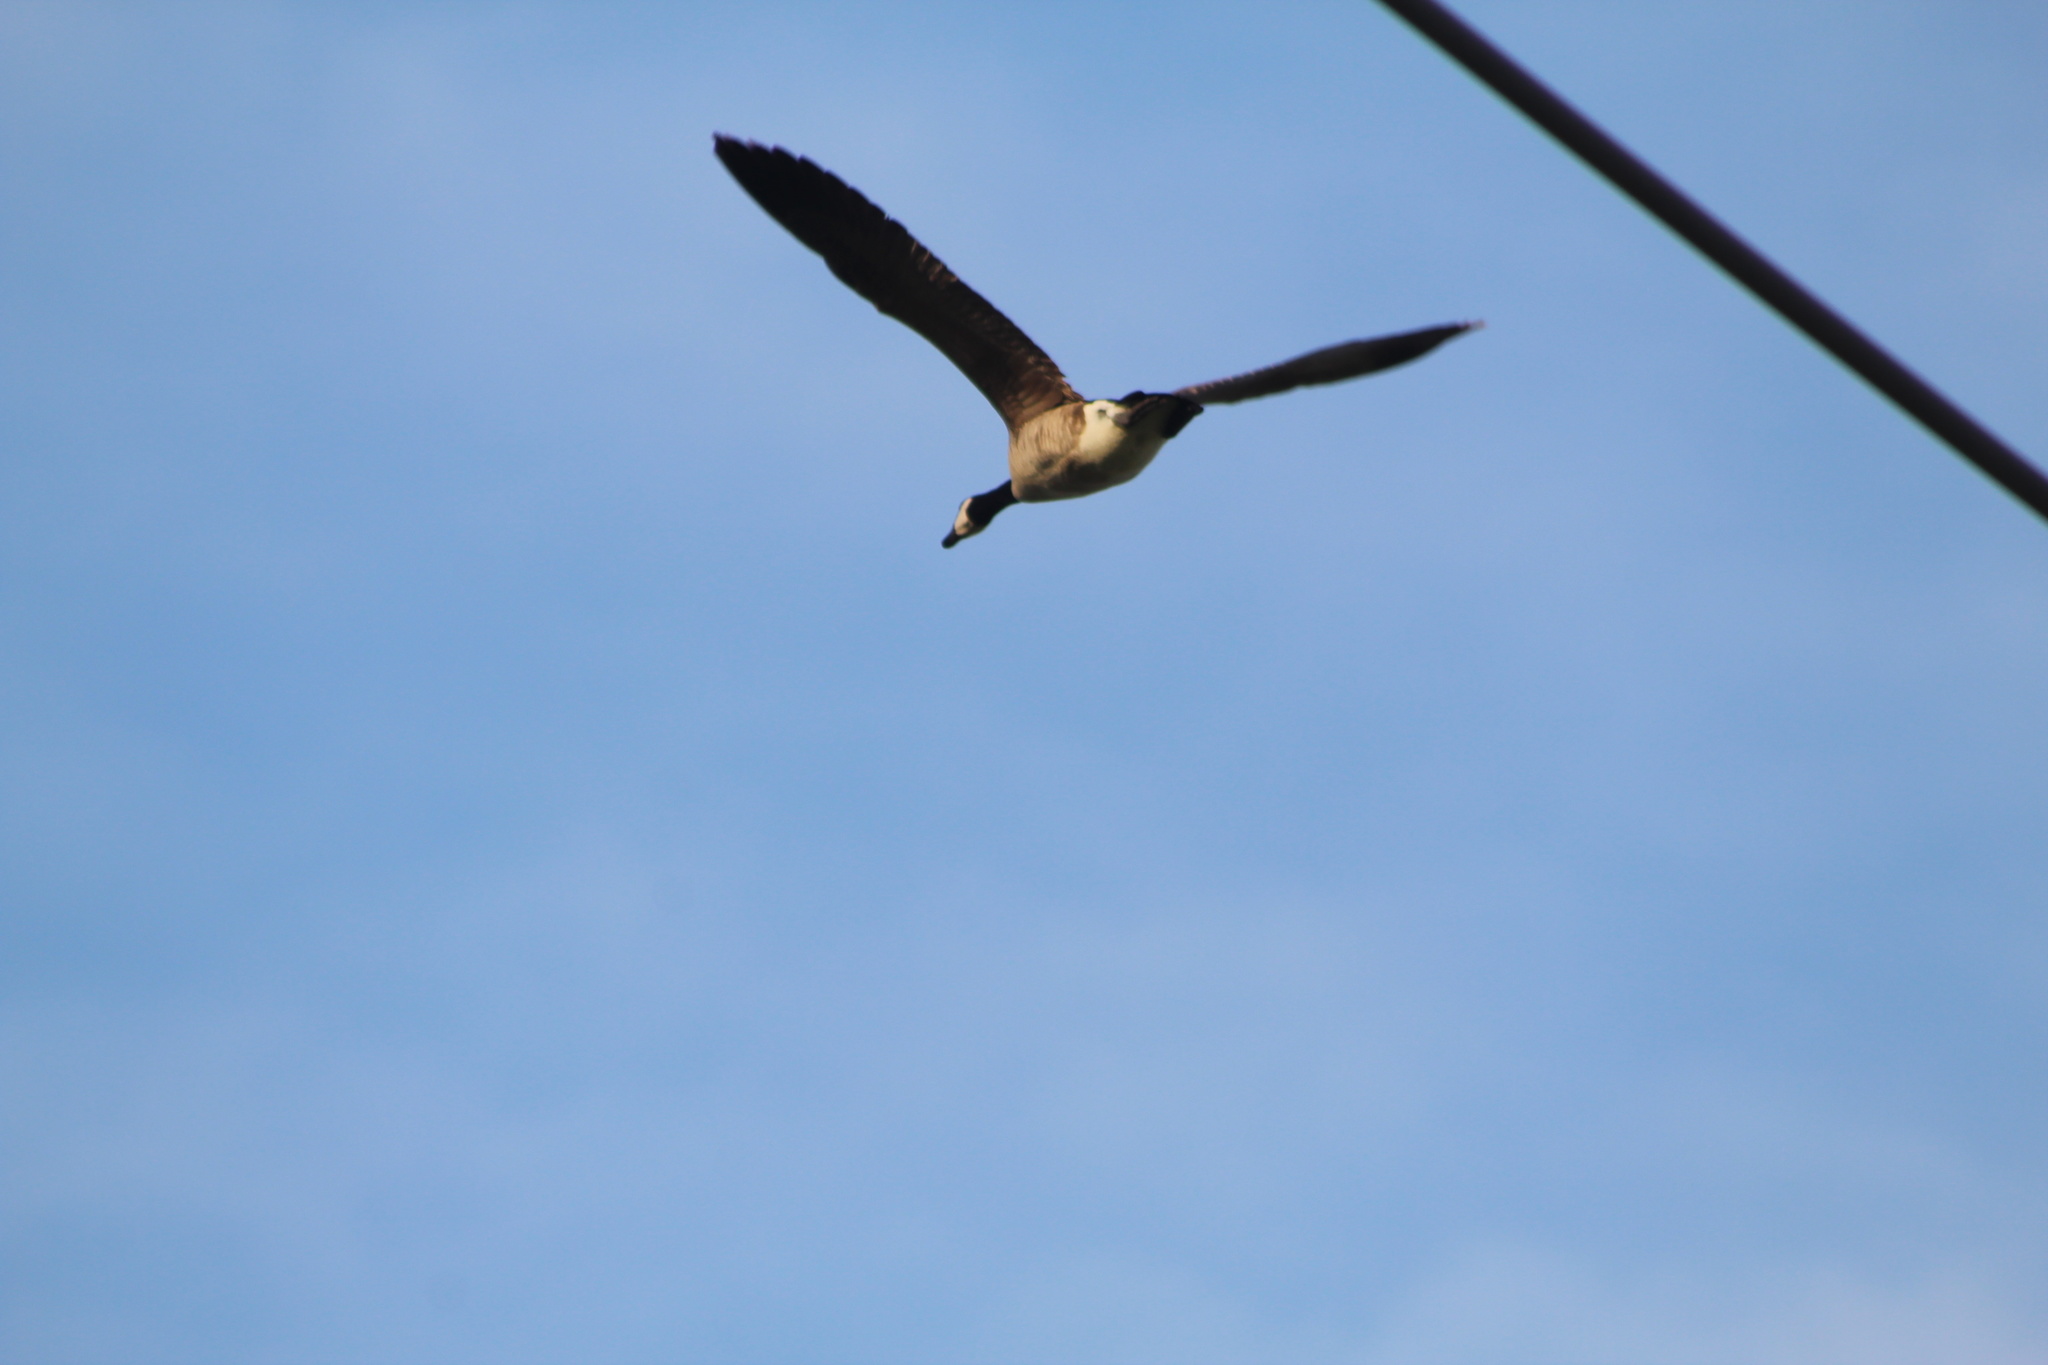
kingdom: Animalia
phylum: Chordata
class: Aves
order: Anseriformes
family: Anatidae
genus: Branta
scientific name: Branta canadensis
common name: Canada goose
